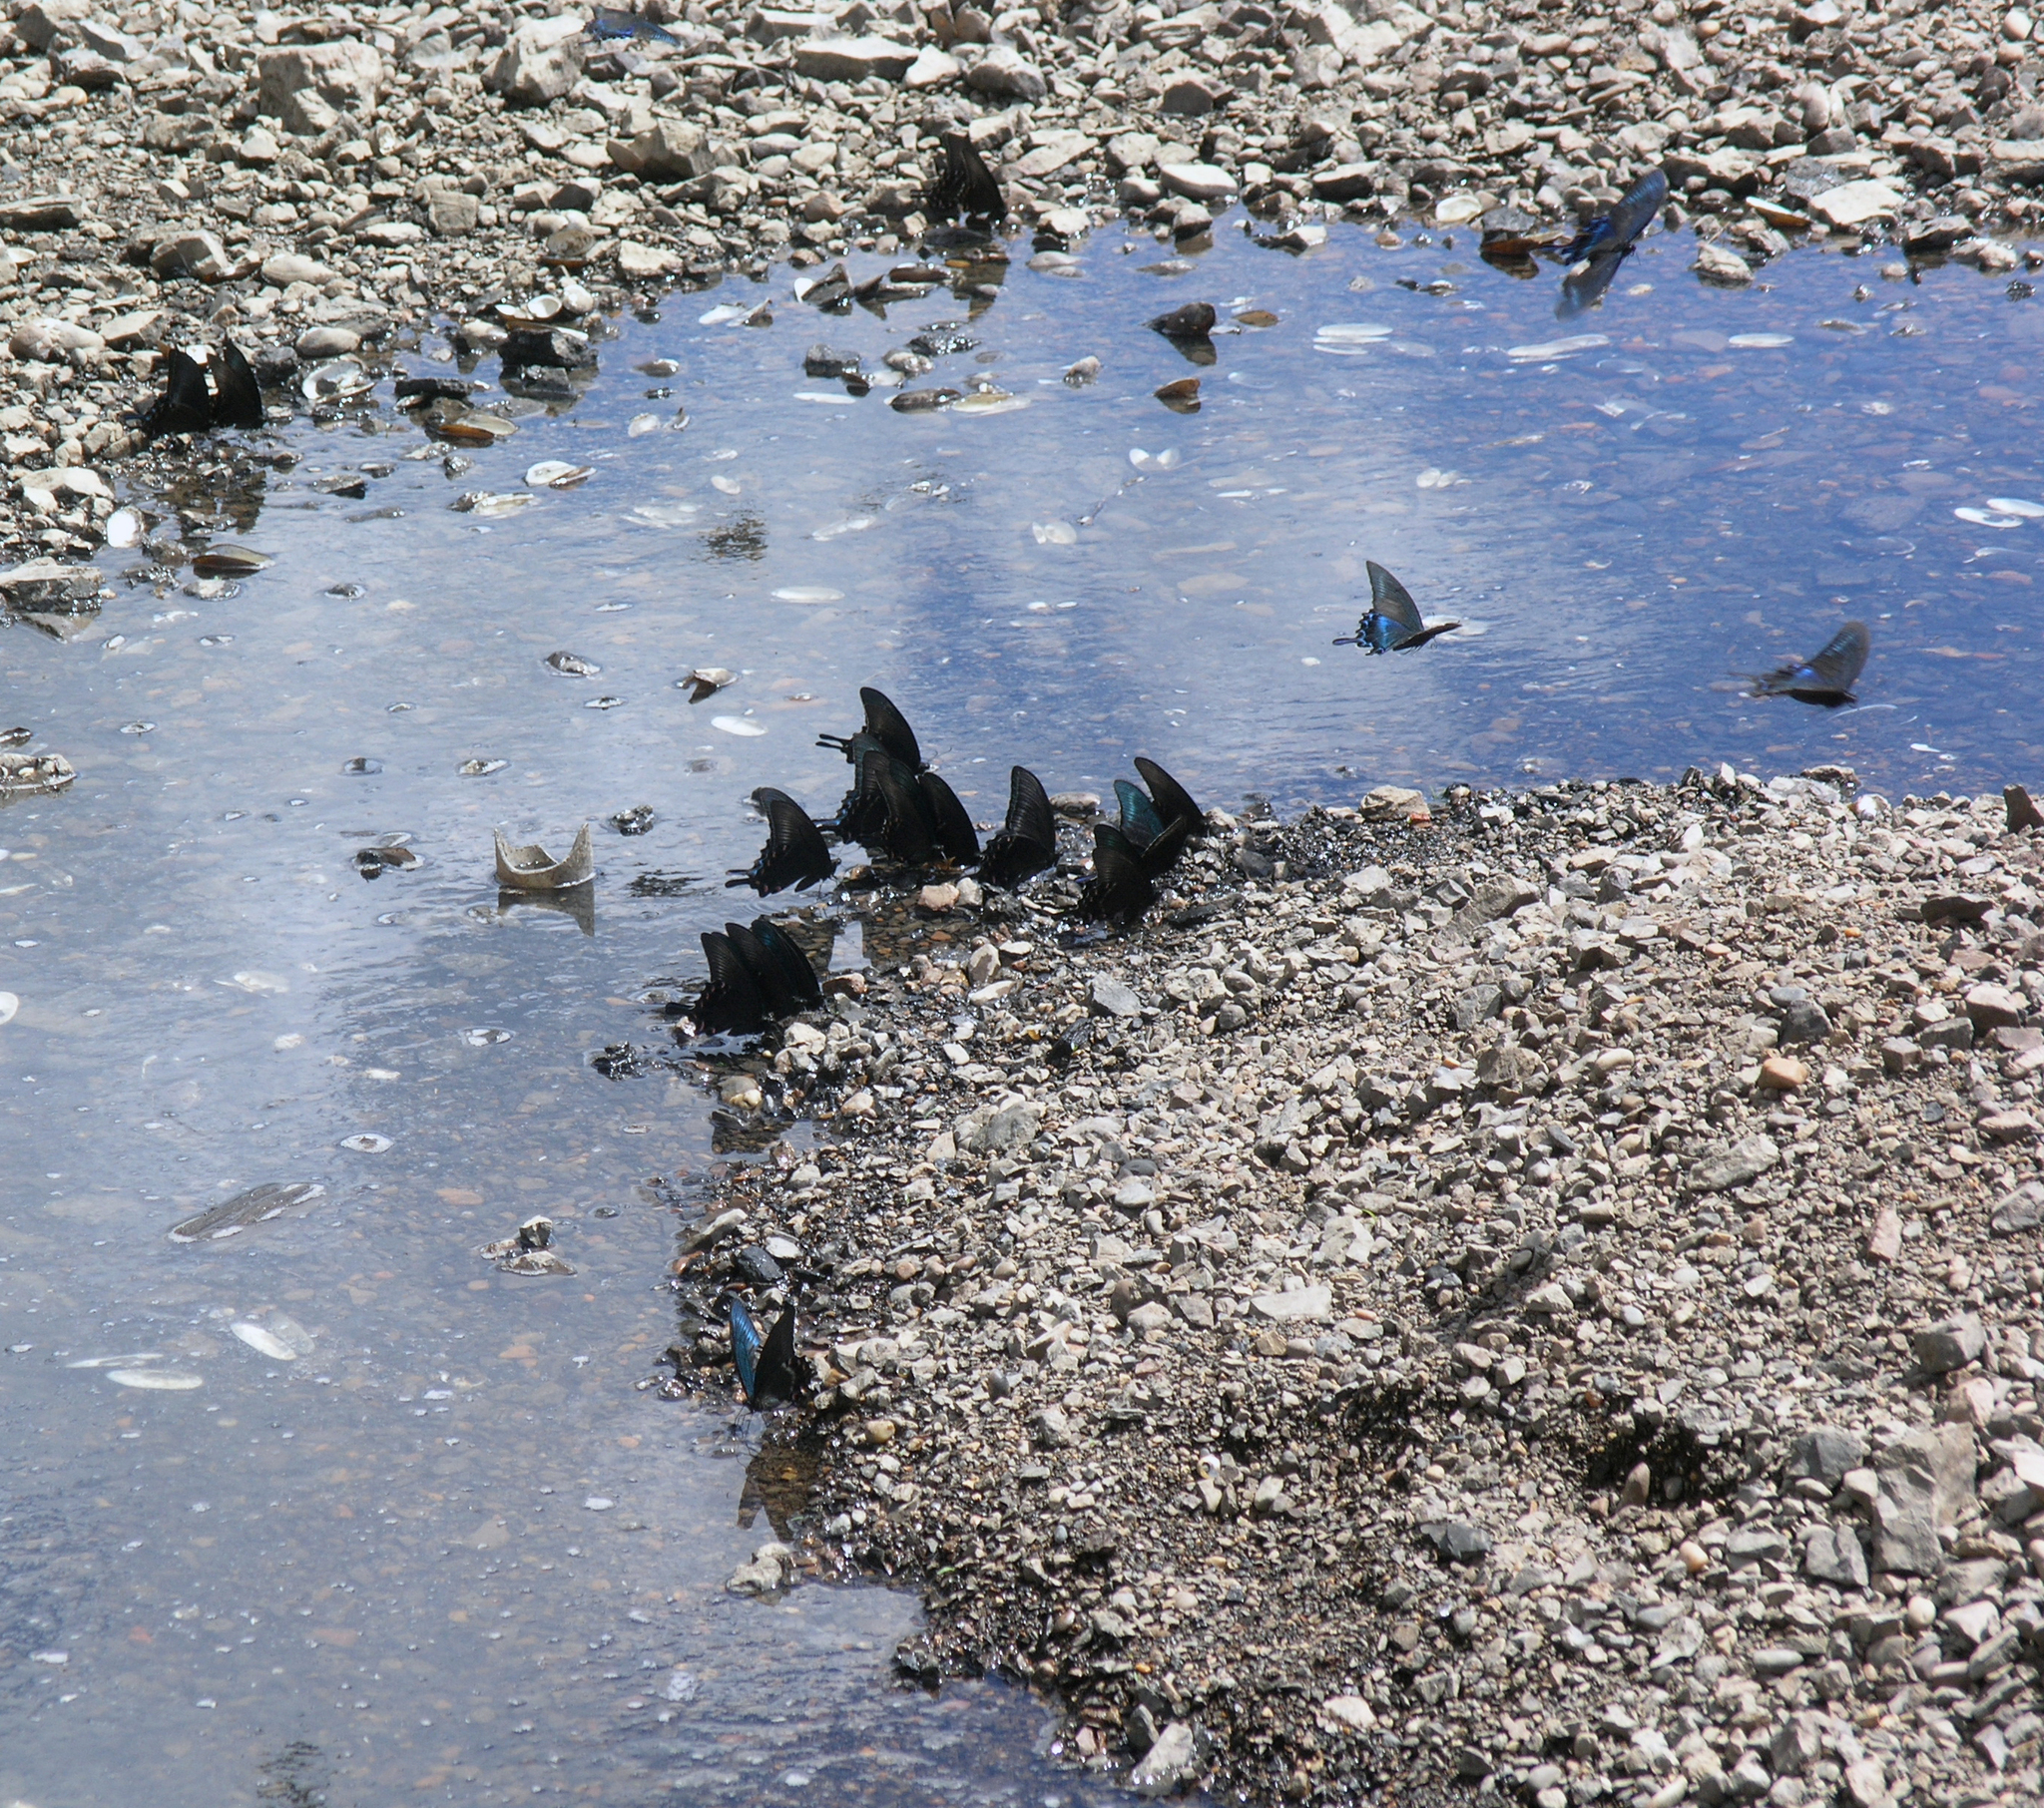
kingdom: Animalia
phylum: Arthropoda
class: Insecta
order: Lepidoptera
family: Papilionidae
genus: Papilio
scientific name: Papilio maackii
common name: Alpine black swallowtail
